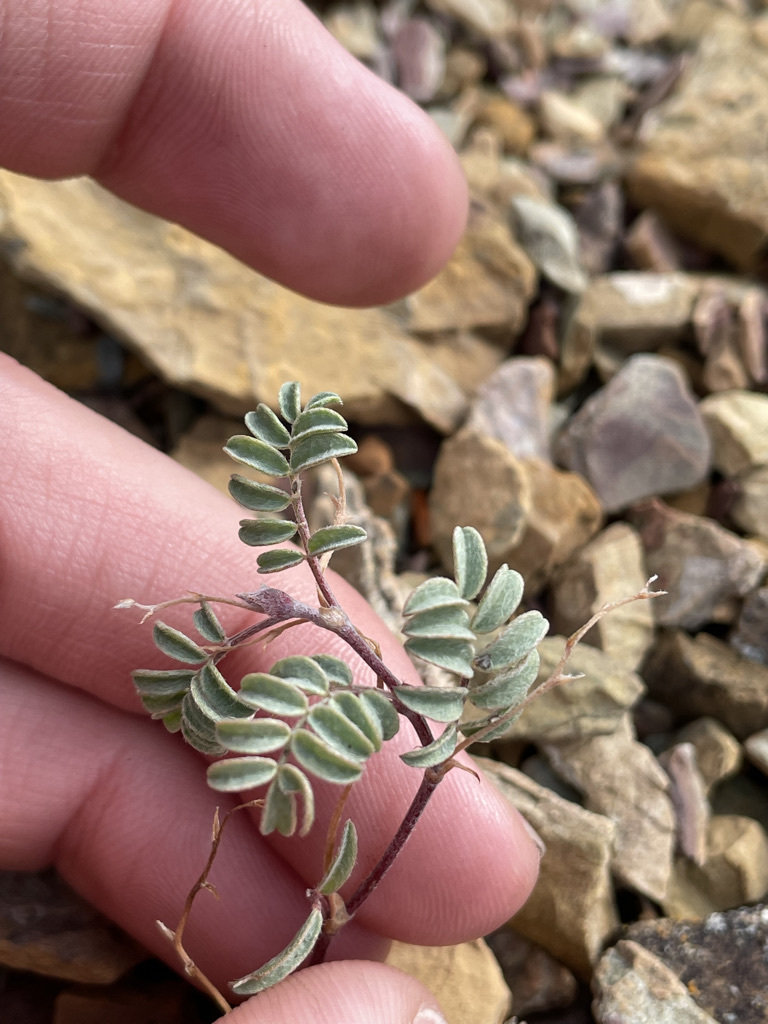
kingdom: Plantae
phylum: Tracheophyta
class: Magnoliopsida
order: Fabales
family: Fabaceae
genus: Astragalus
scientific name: Astragalus vexilliflexus
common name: Bent-flowered milk-vetch
